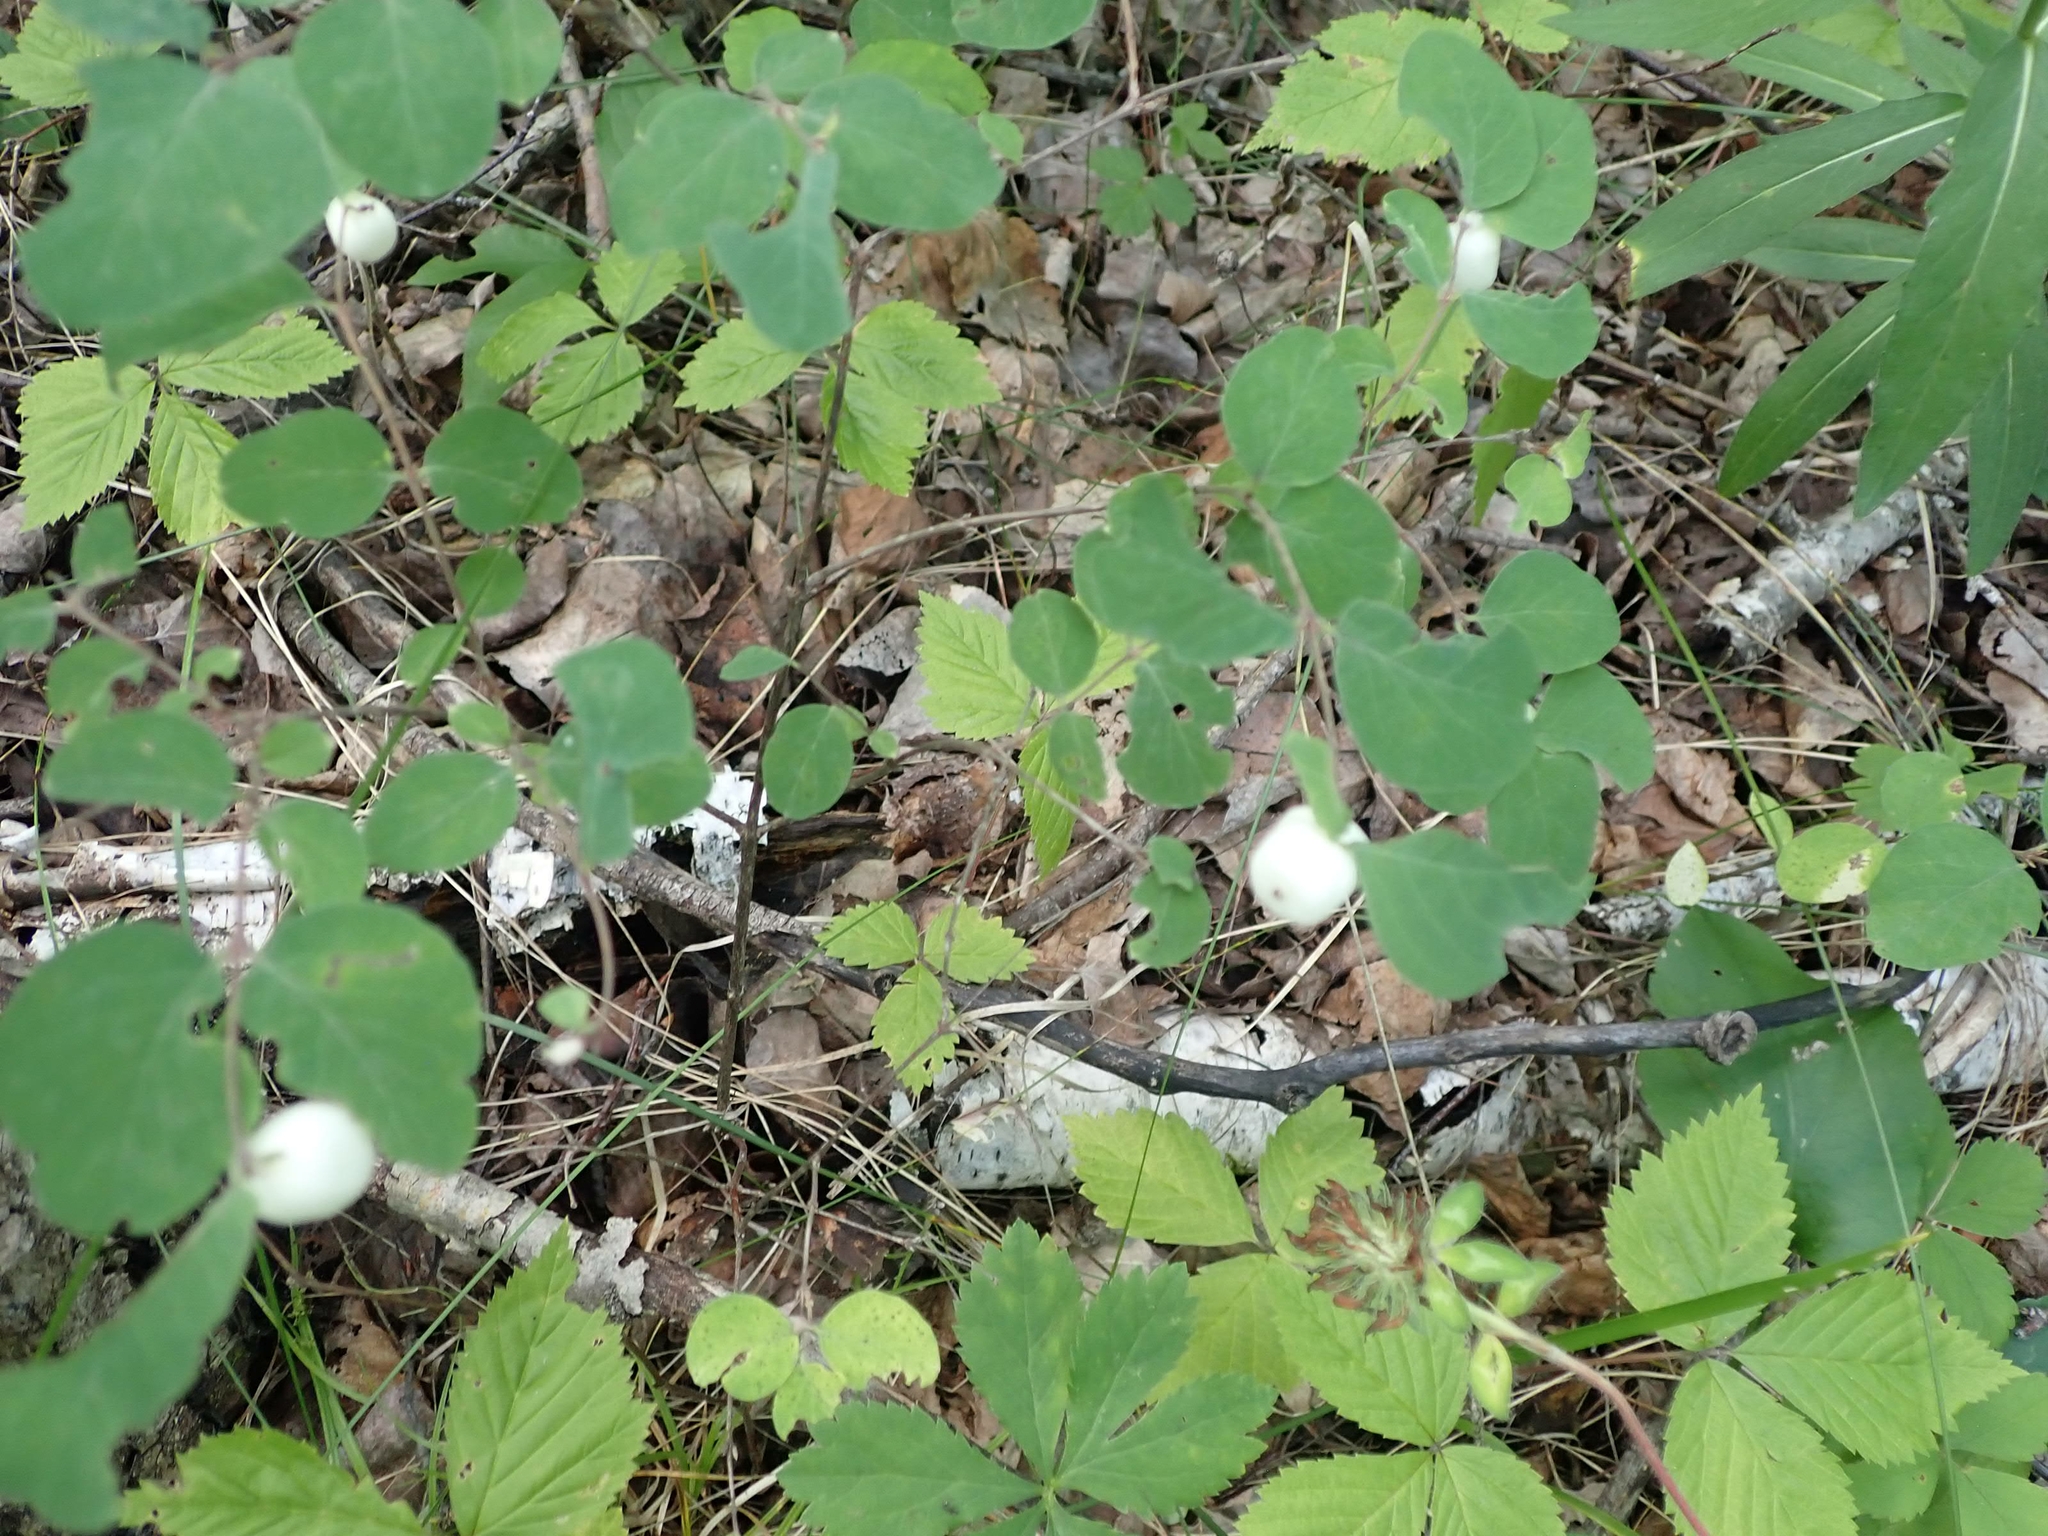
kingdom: Plantae
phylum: Tracheophyta
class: Magnoliopsida
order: Dipsacales
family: Caprifoliaceae
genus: Symphoricarpos
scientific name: Symphoricarpos albus
